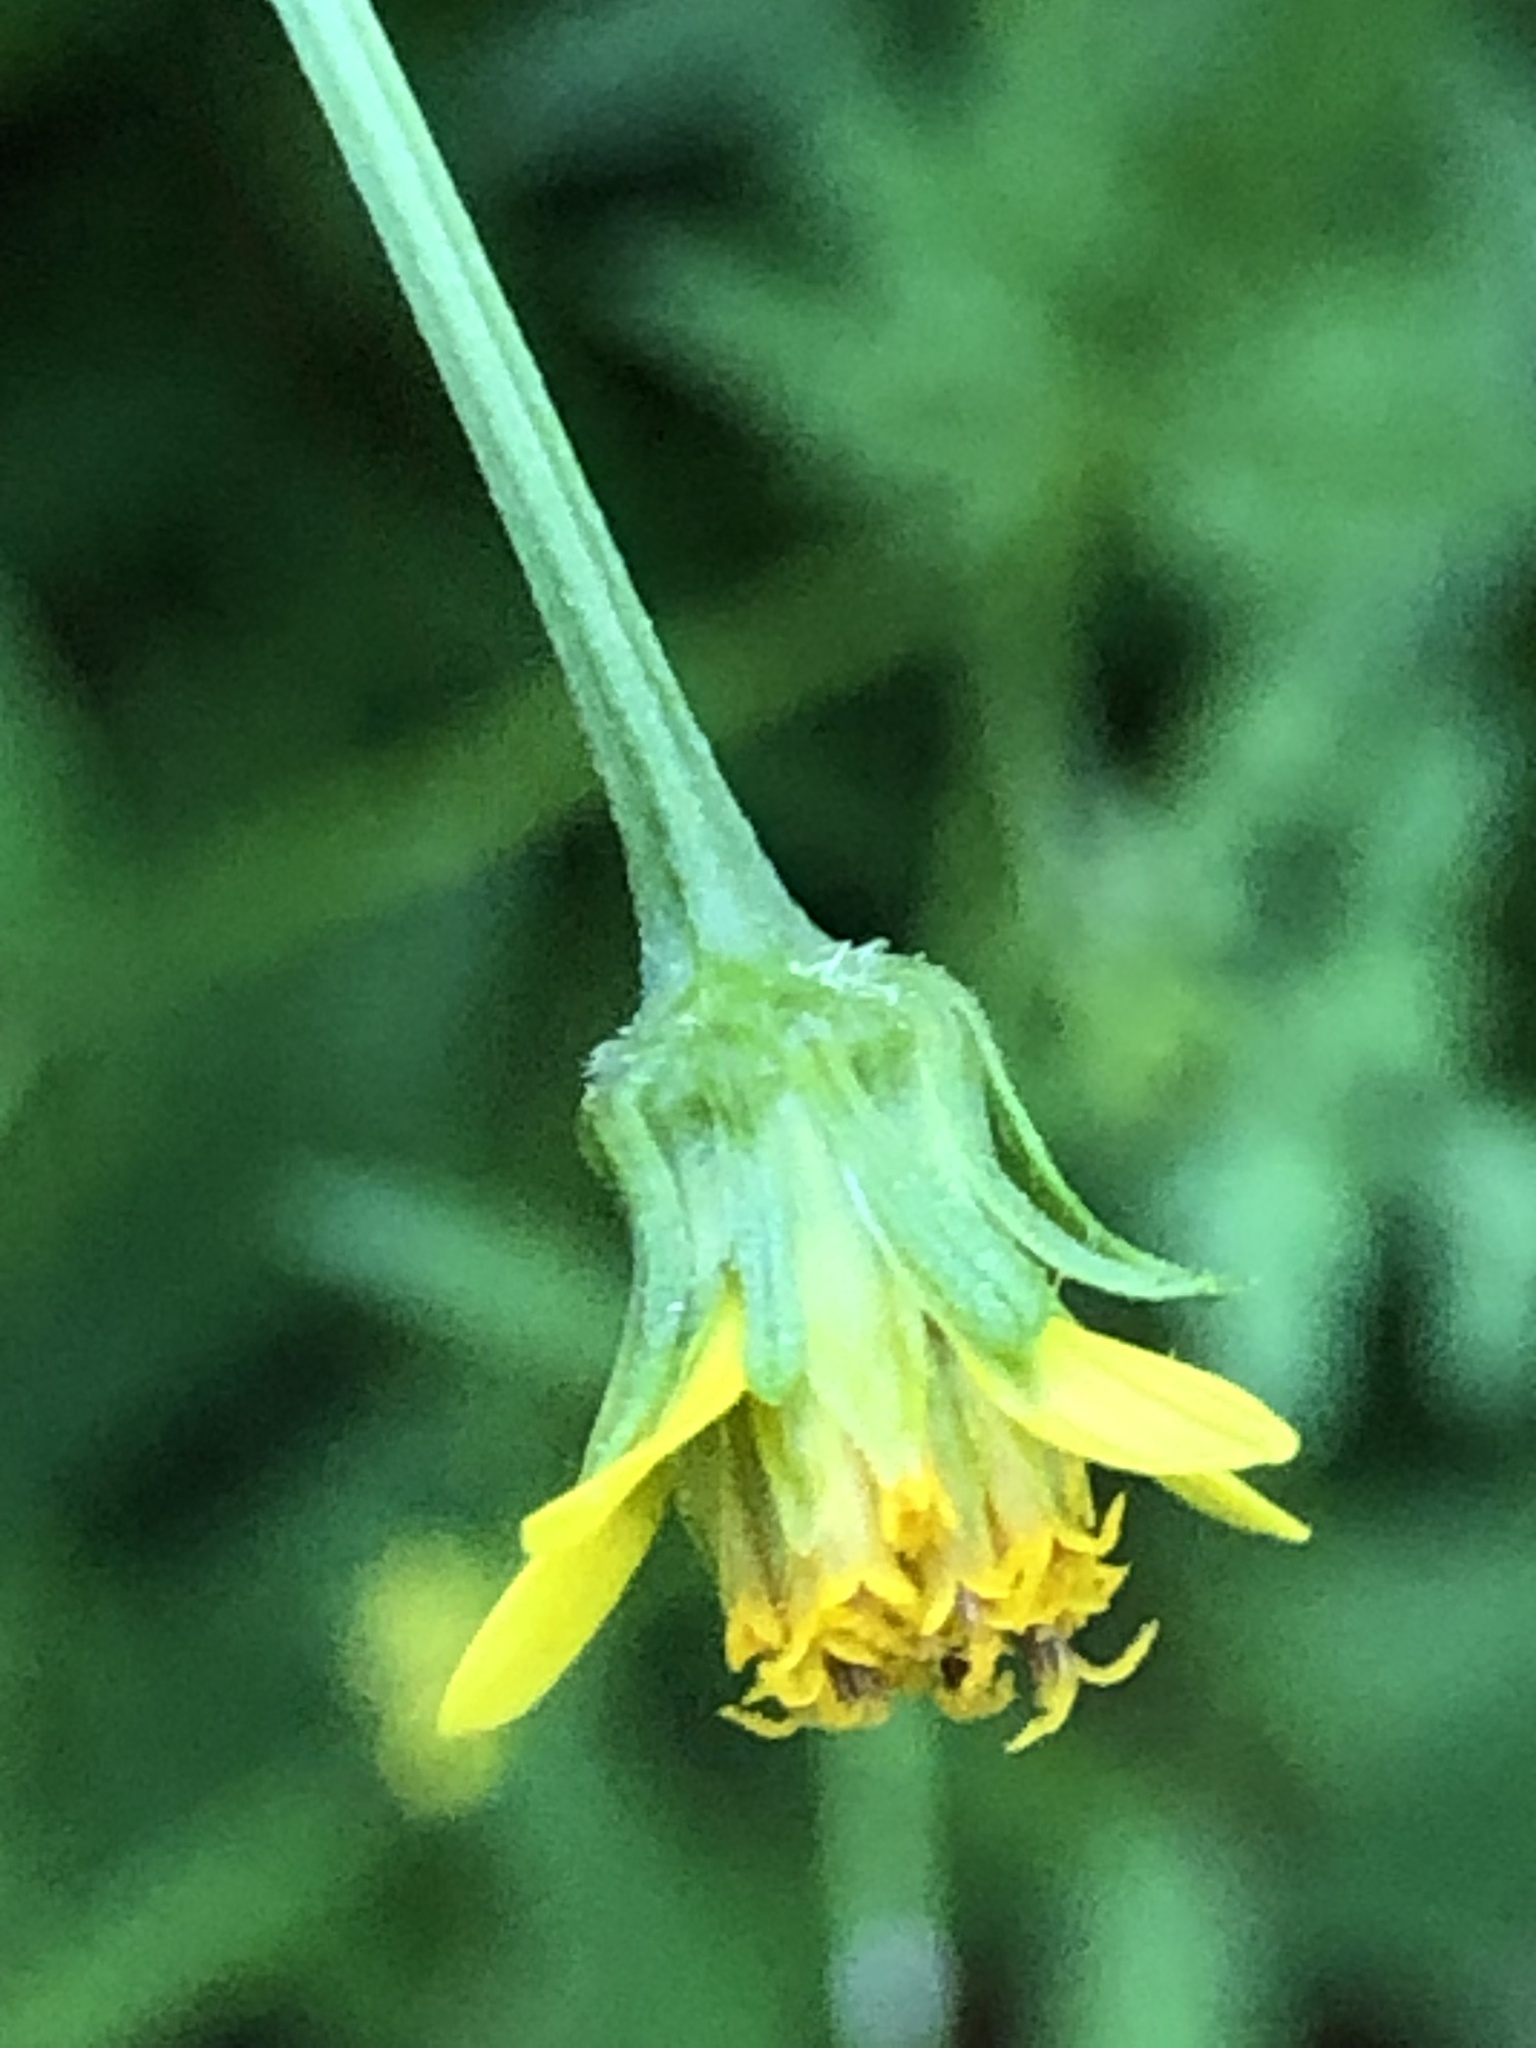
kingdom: Plantae
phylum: Tracheophyta
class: Magnoliopsida
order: Asterales
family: Asteraceae
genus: Bidens
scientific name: Bidens bipinnata
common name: Spanish-needles
